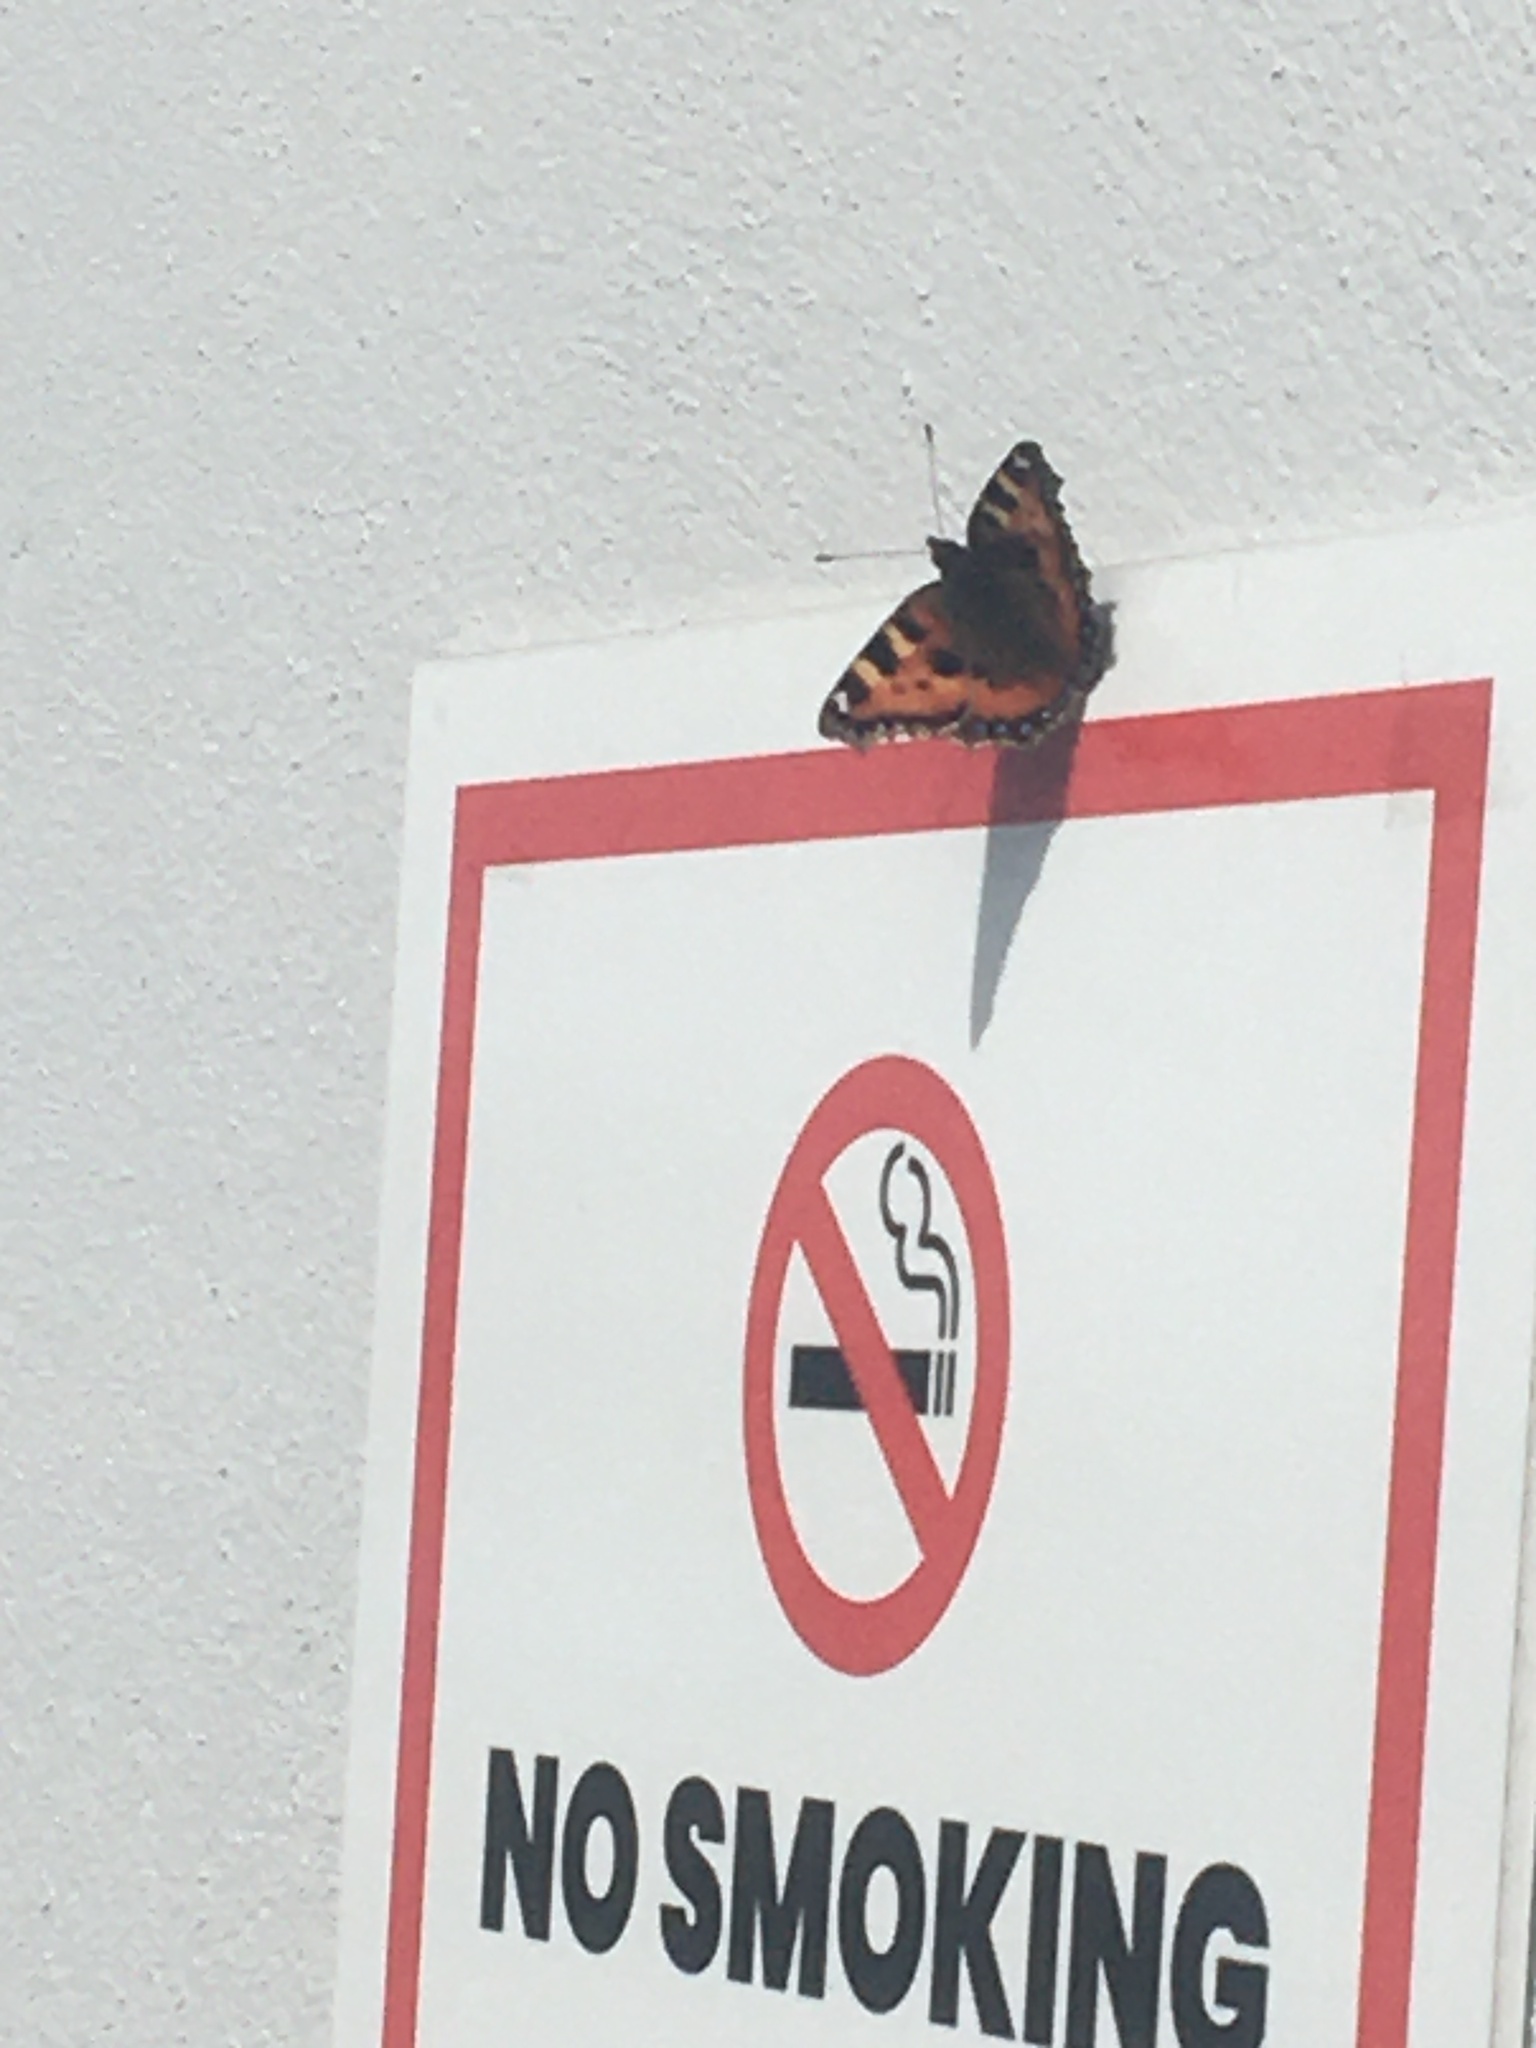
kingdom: Animalia
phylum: Arthropoda
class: Insecta
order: Lepidoptera
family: Nymphalidae
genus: Aglais
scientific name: Aglais urticae
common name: Small tortoiseshell
